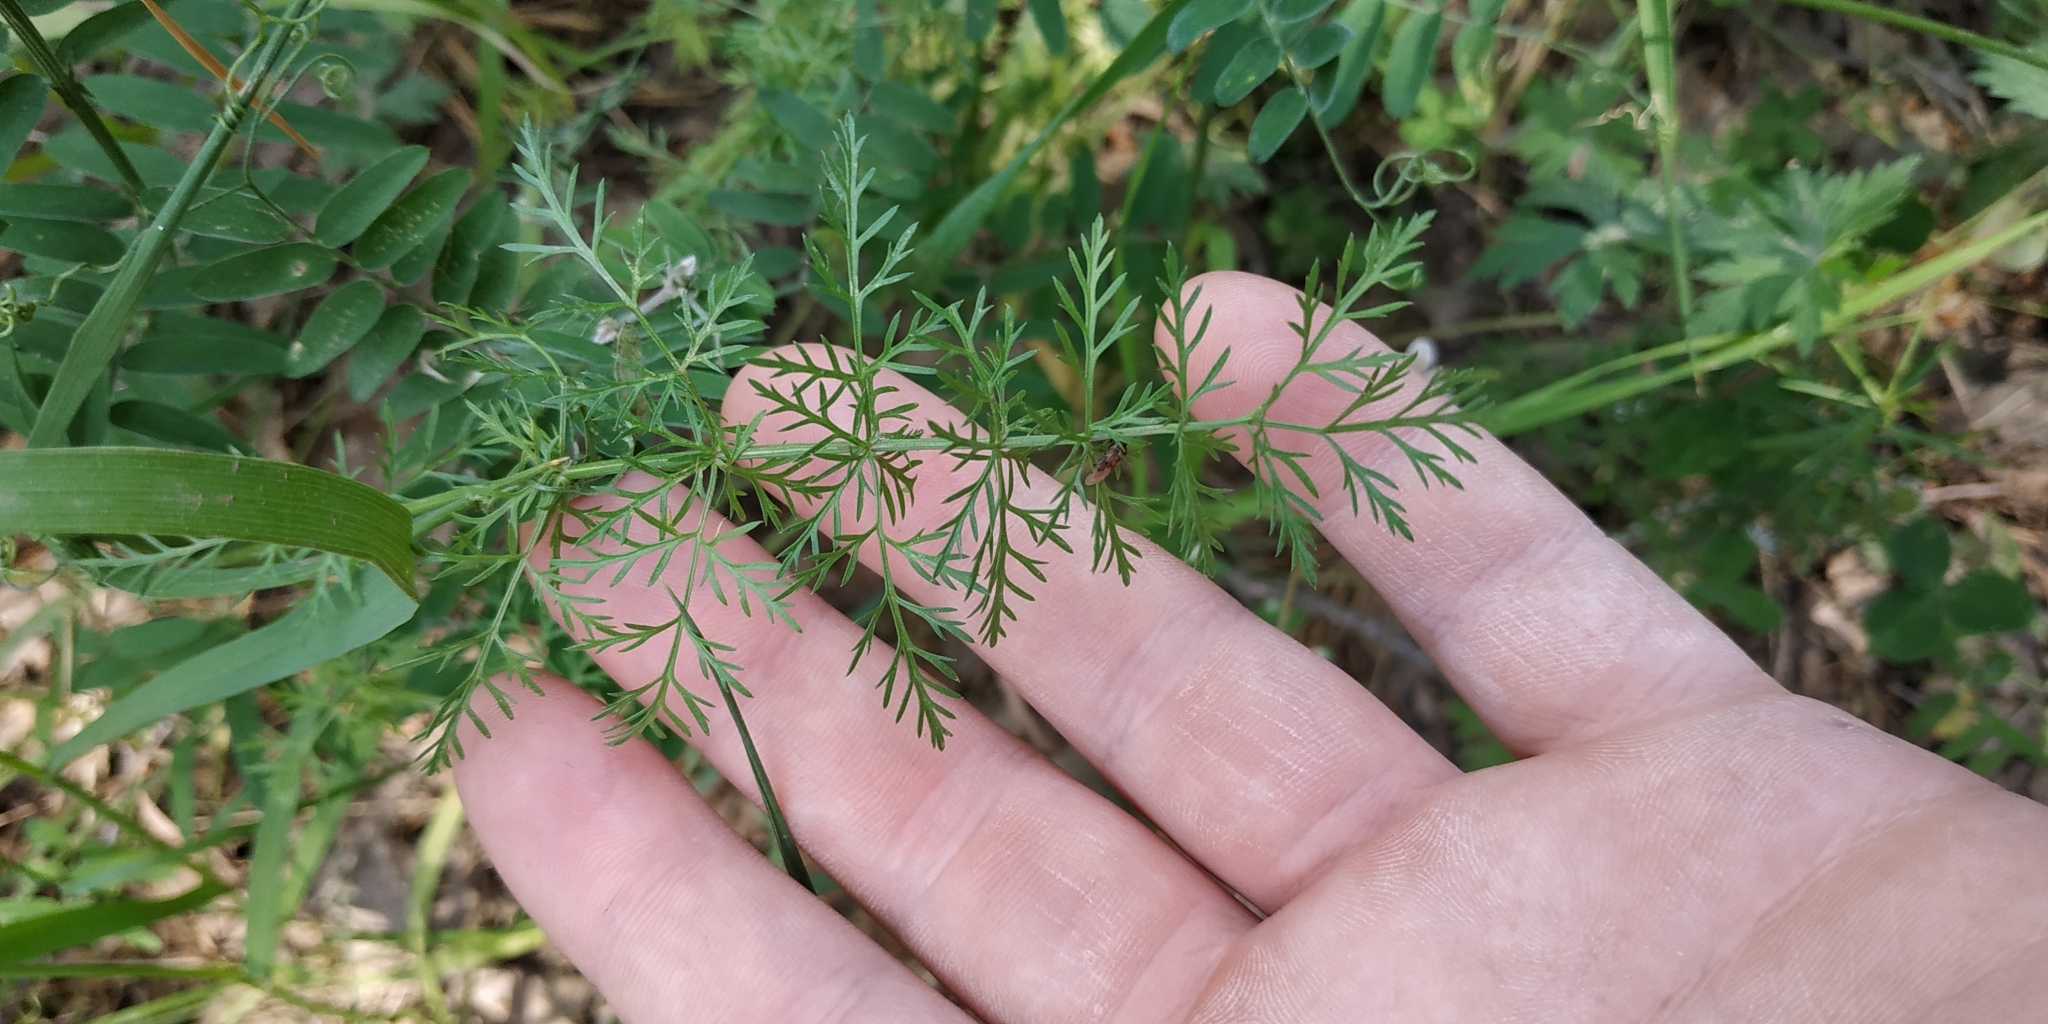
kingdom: Plantae
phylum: Tracheophyta
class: Magnoliopsida
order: Apiales
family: Apiaceae
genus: Carum
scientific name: Carum carvi
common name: Caraway
